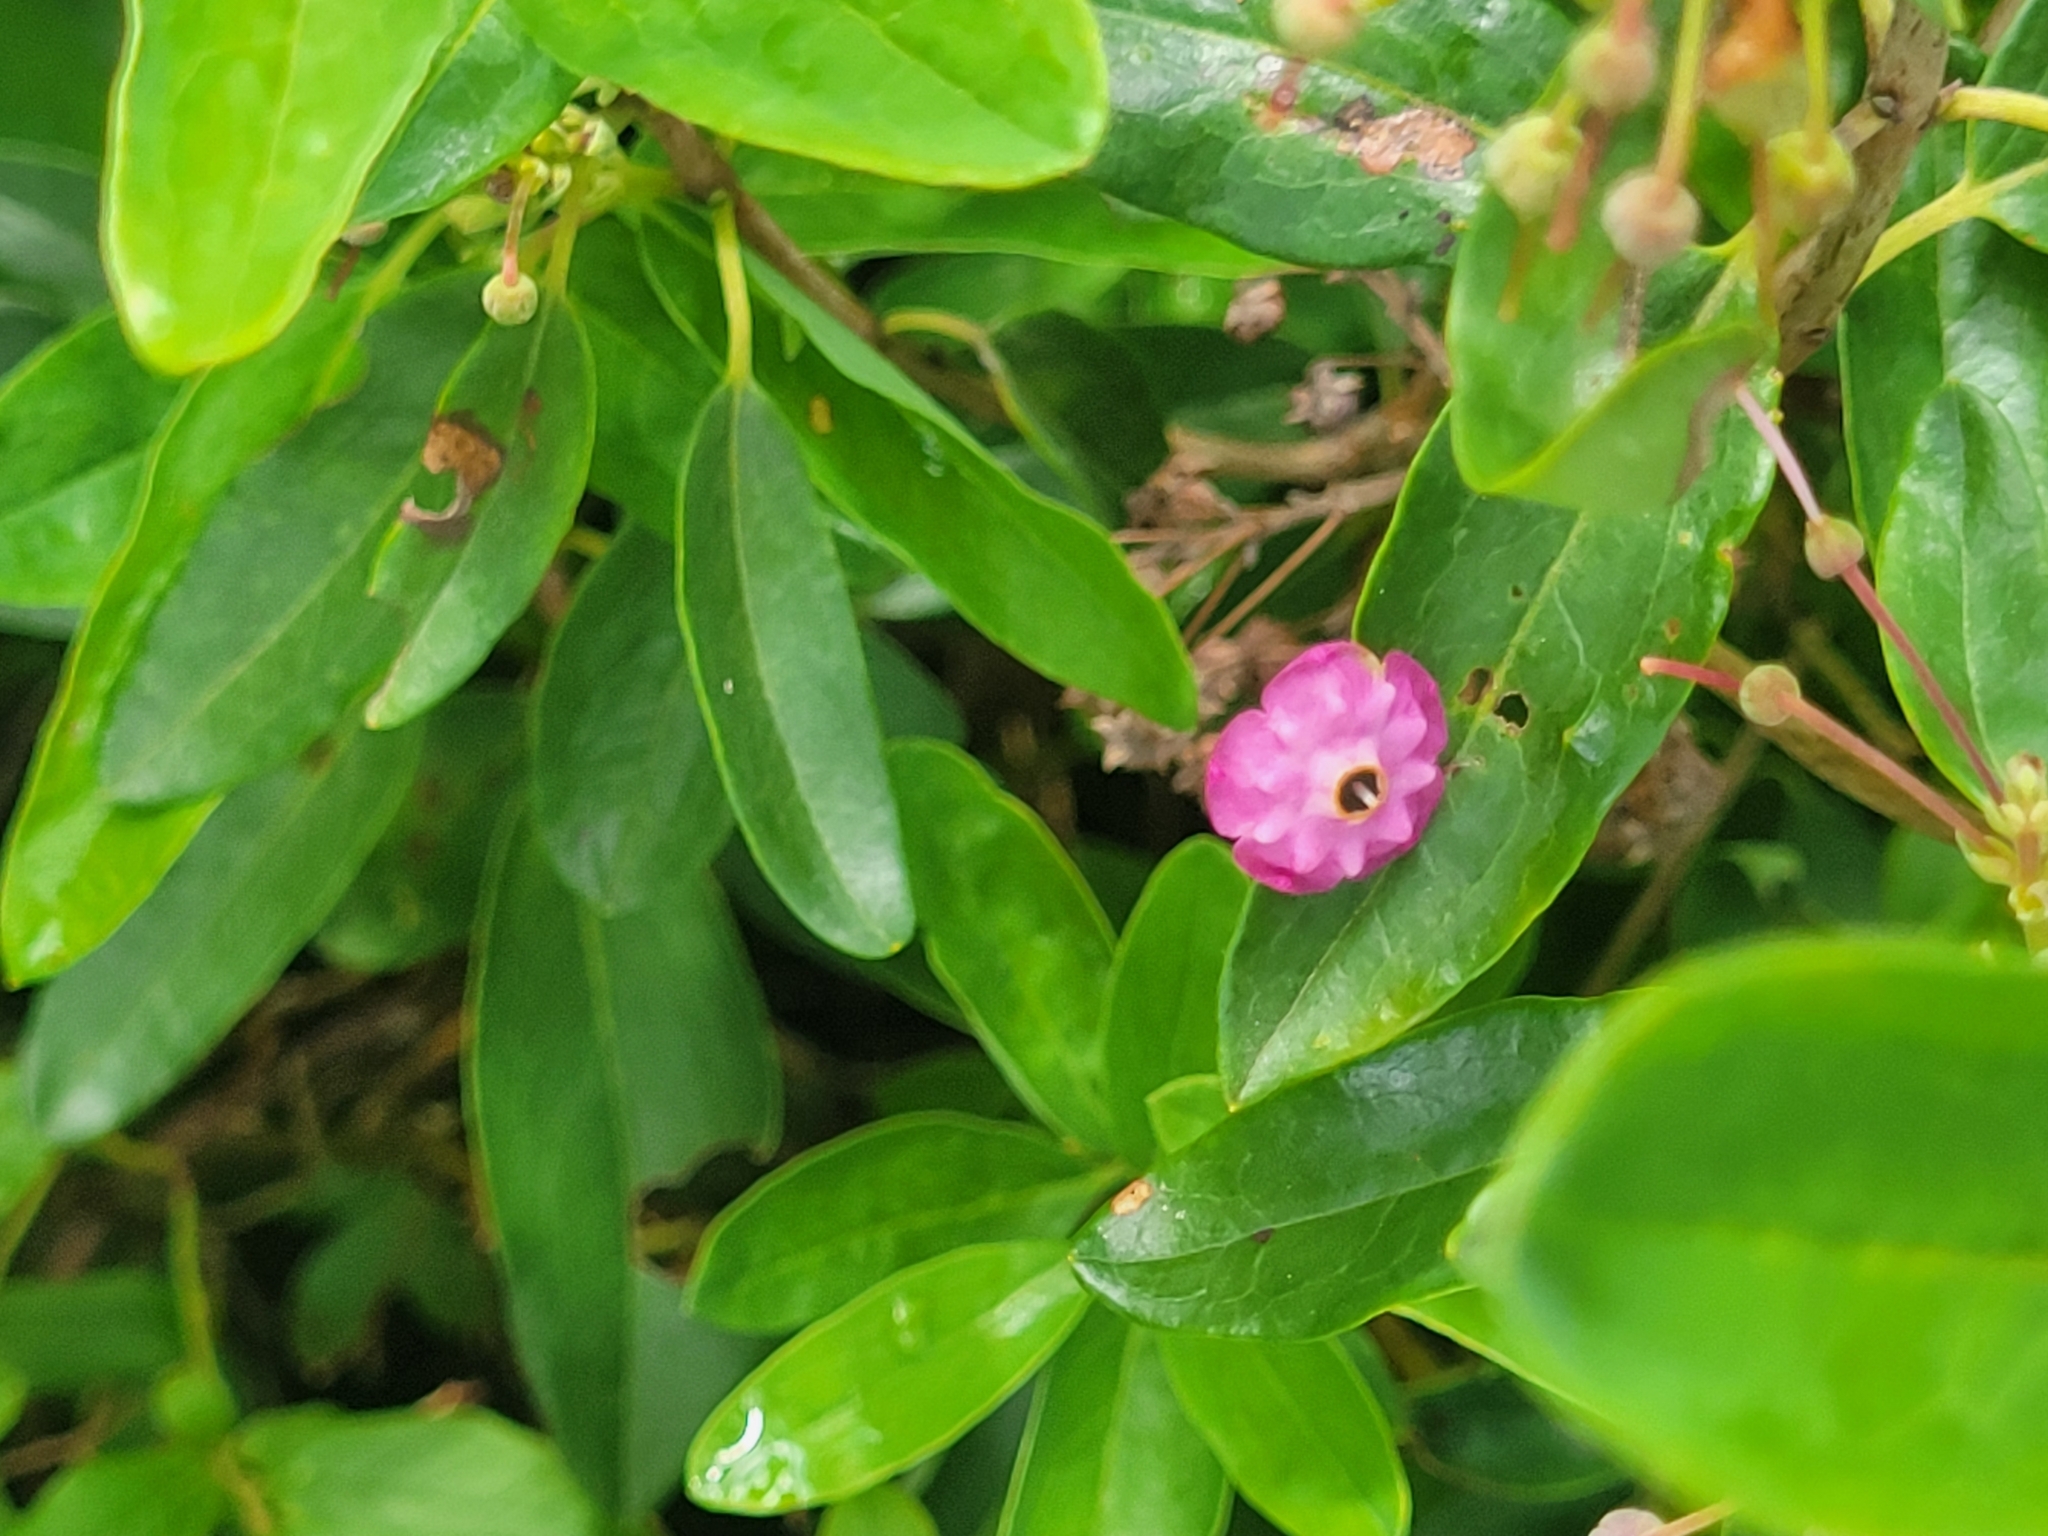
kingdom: Plantae
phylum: Tracheophyta
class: Magnoliopsida
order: Ericales
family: Ericaceae
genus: Kalmia
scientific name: Kalmia angustifolia
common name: Sheep-laurel
